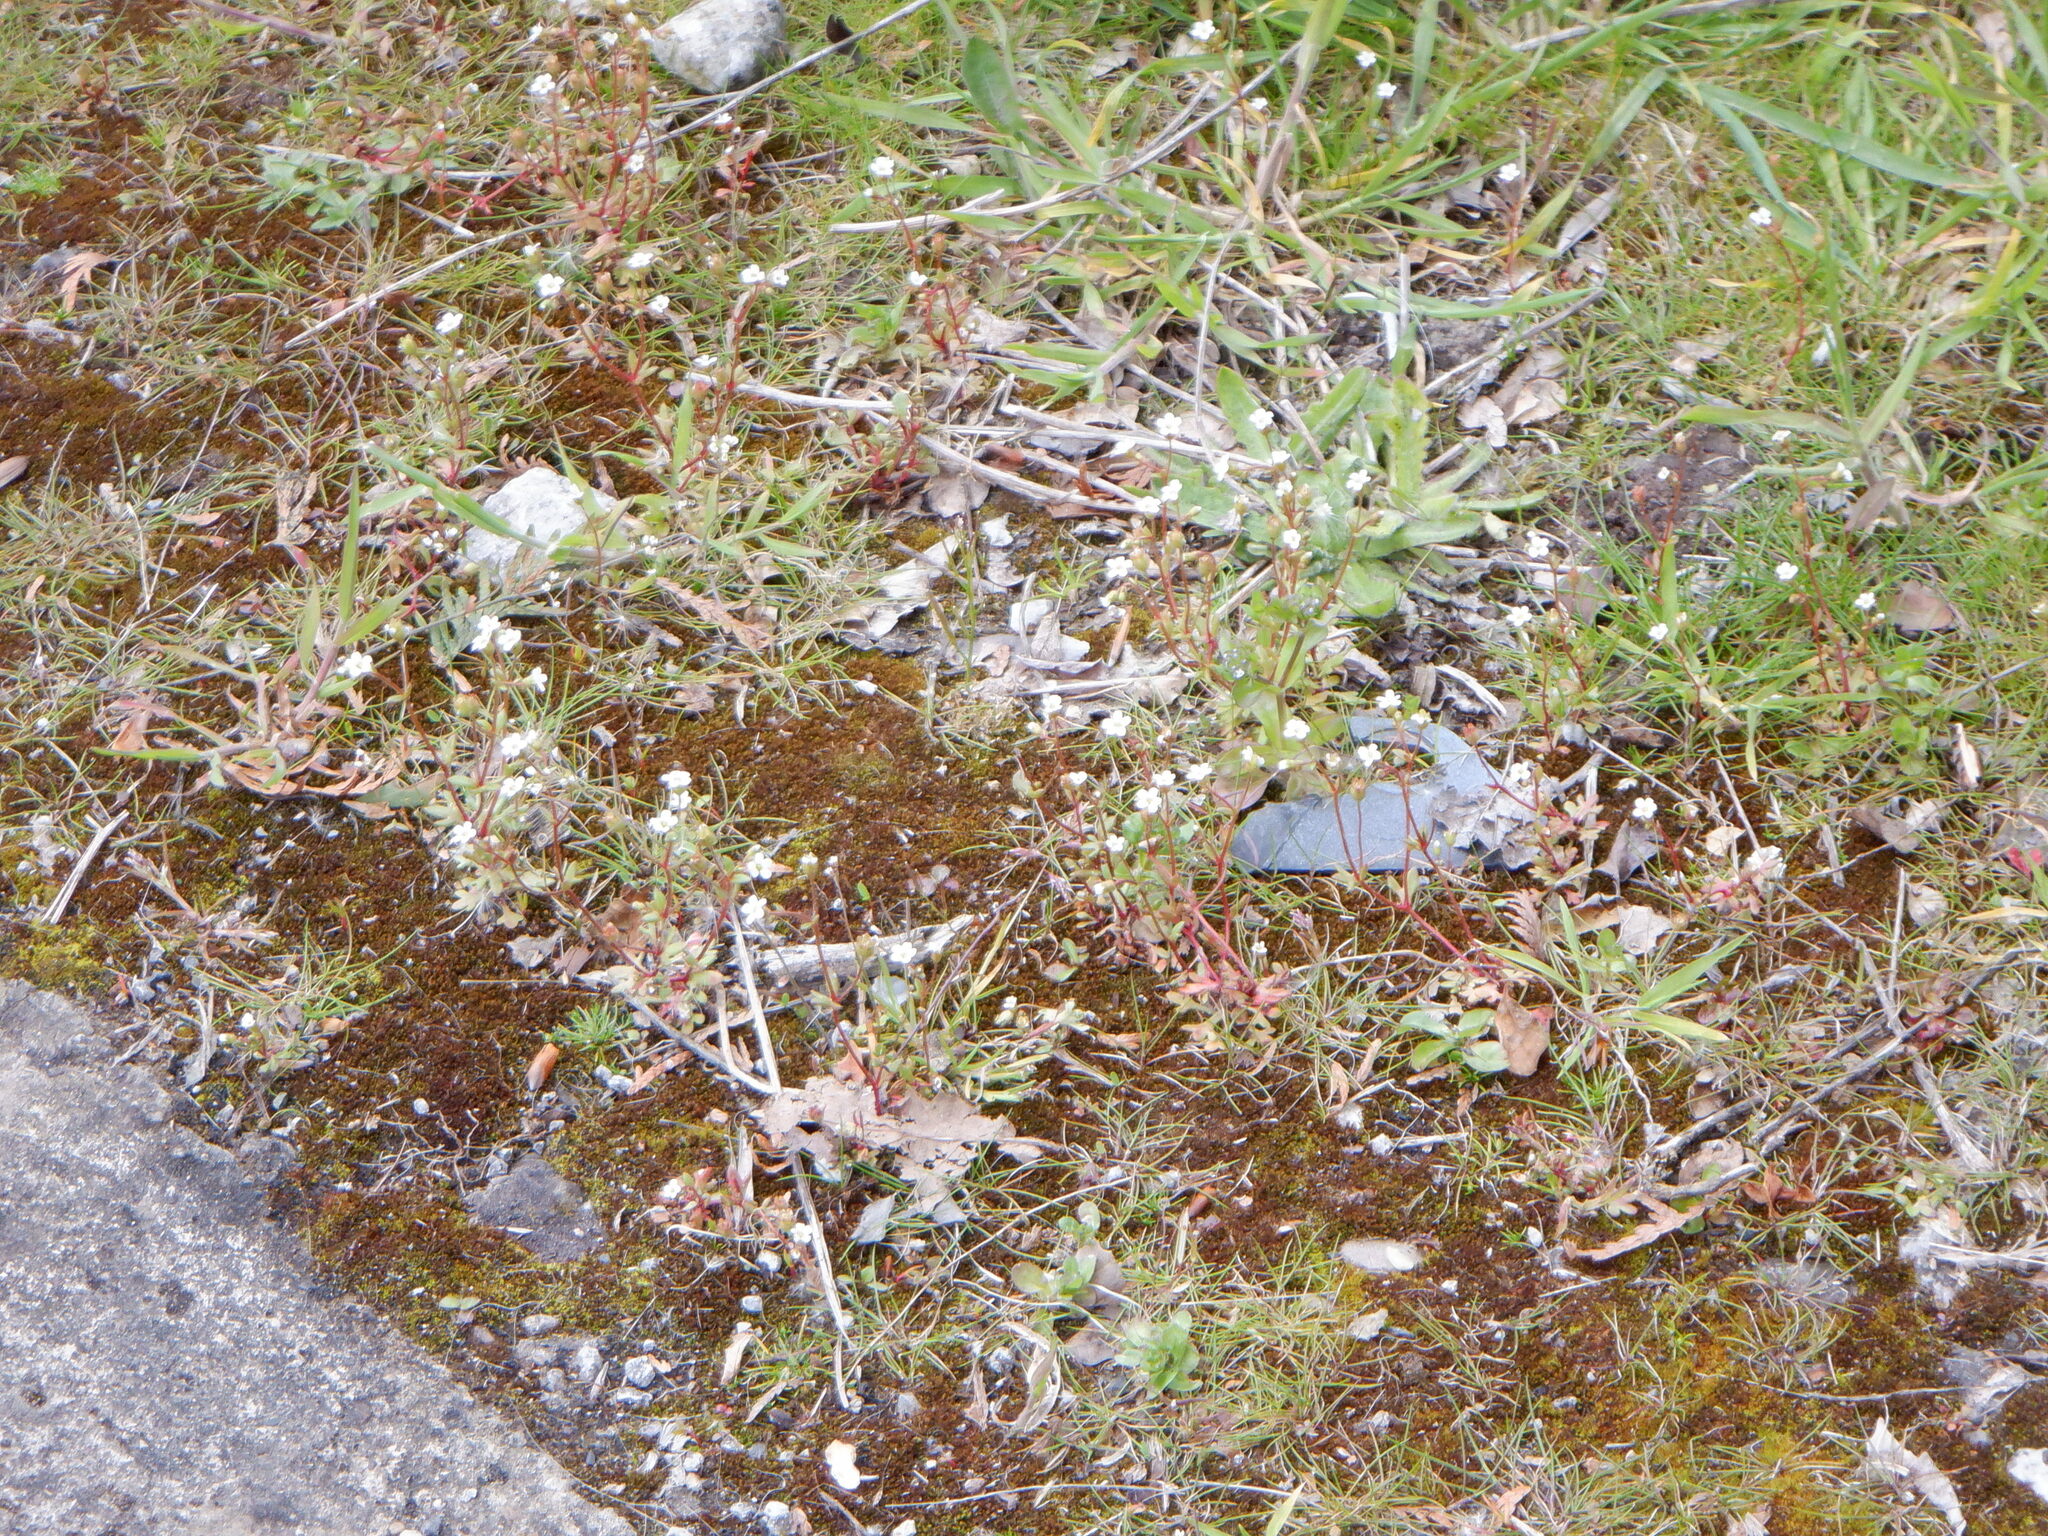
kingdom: Plantae
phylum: Tracheophyta
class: Magnoliopsida
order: Saxifragales
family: Saxifragaceae
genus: Saxifraga
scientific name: Saxifraga tridactylites
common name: Rue-leaved saxifrage
